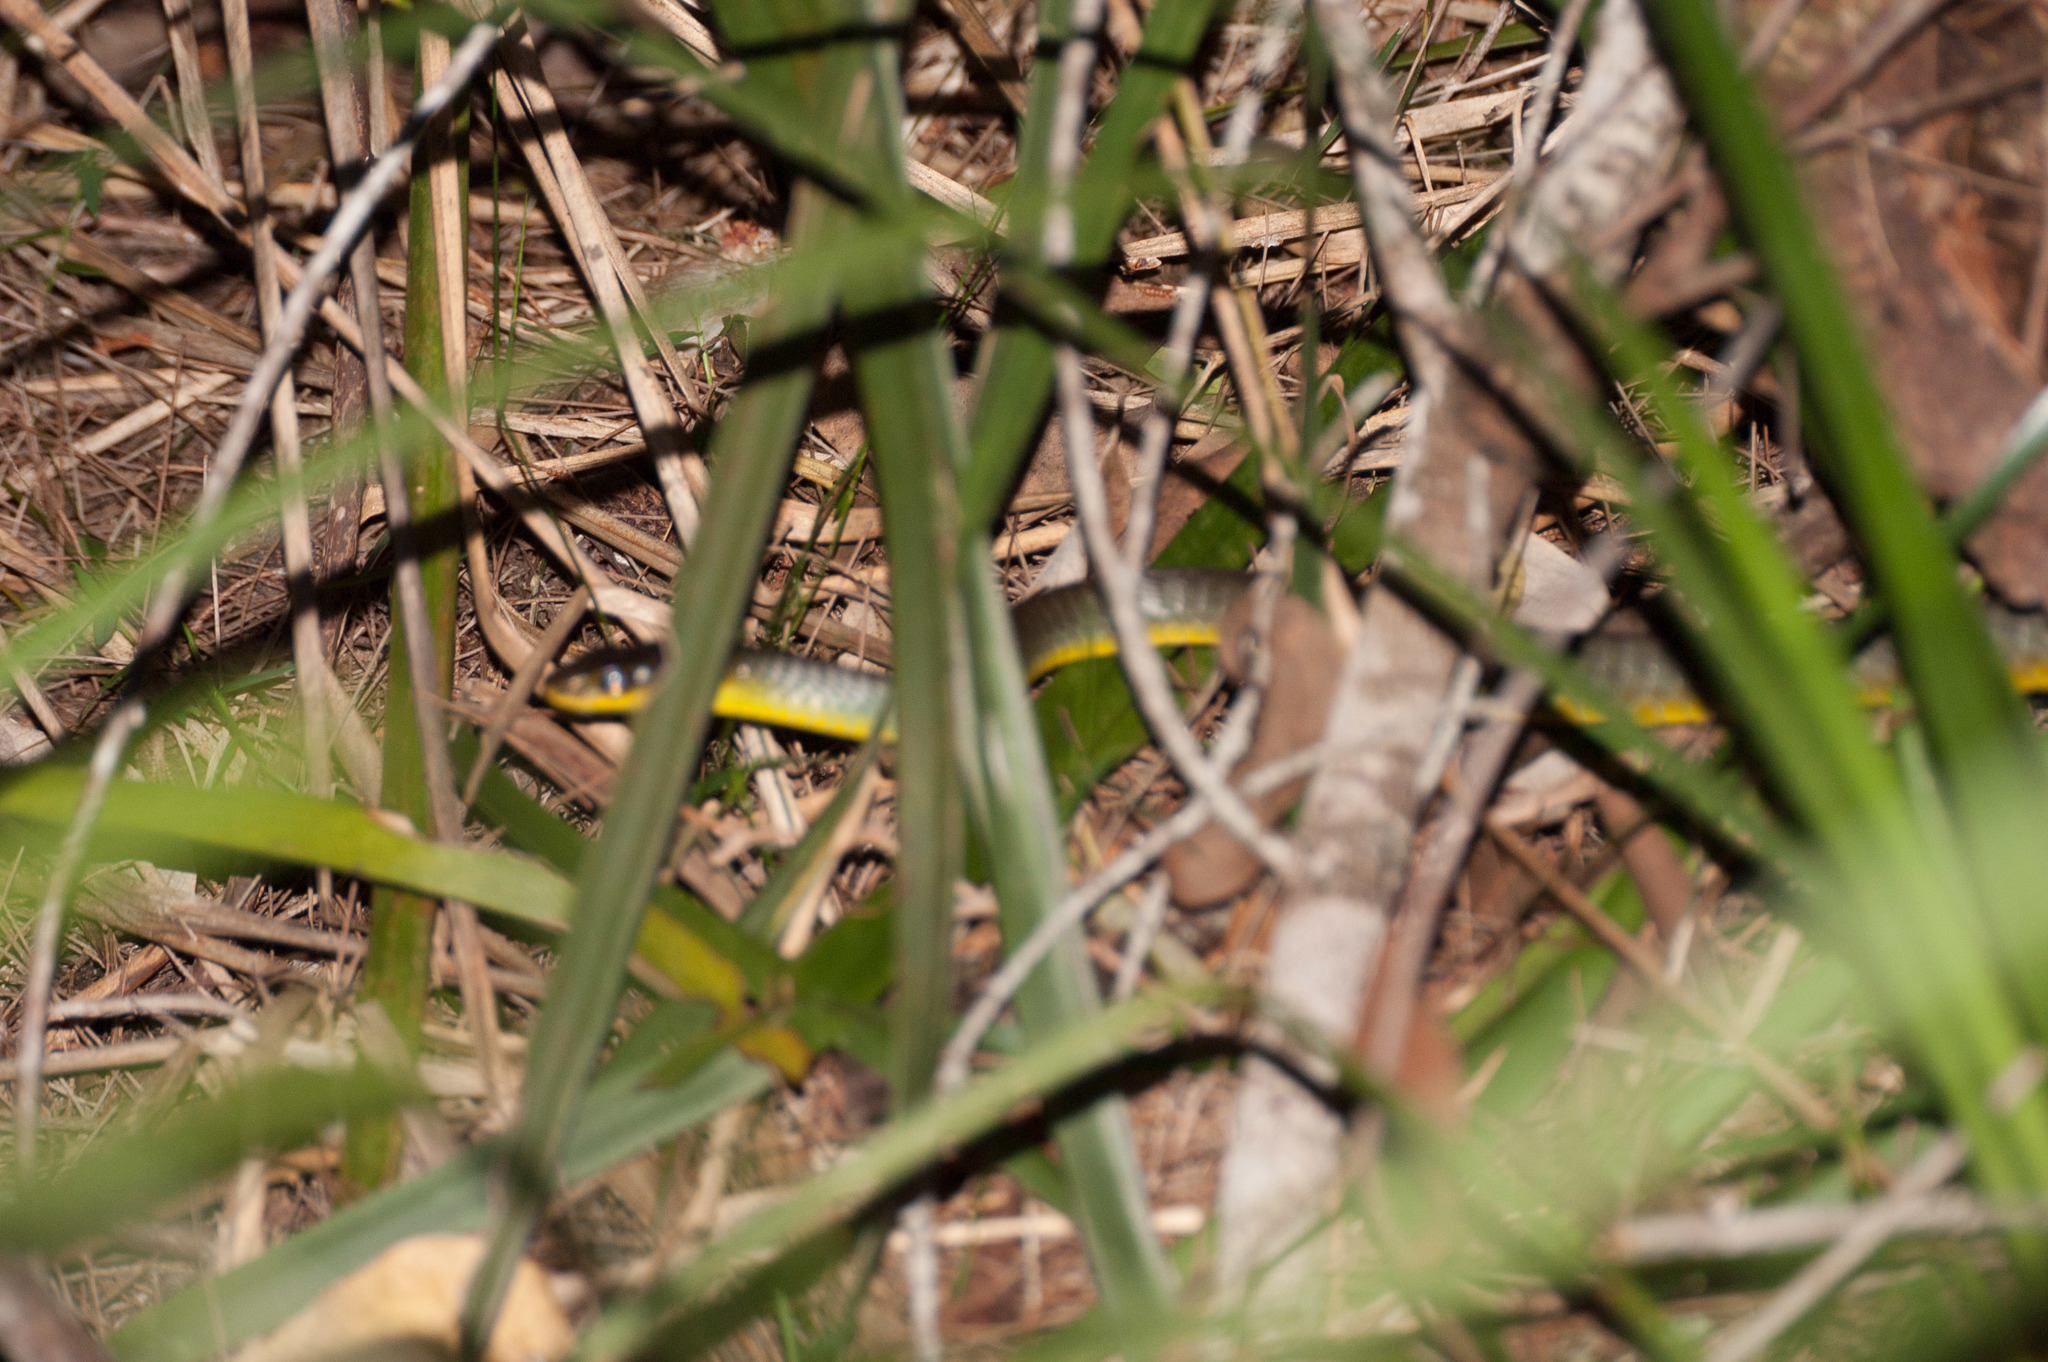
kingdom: Animalia
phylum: Chordata
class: Squamata
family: Colubridae
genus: Dendrelaphis
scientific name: Dendrelaphis punctulatus
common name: Common tree snake
